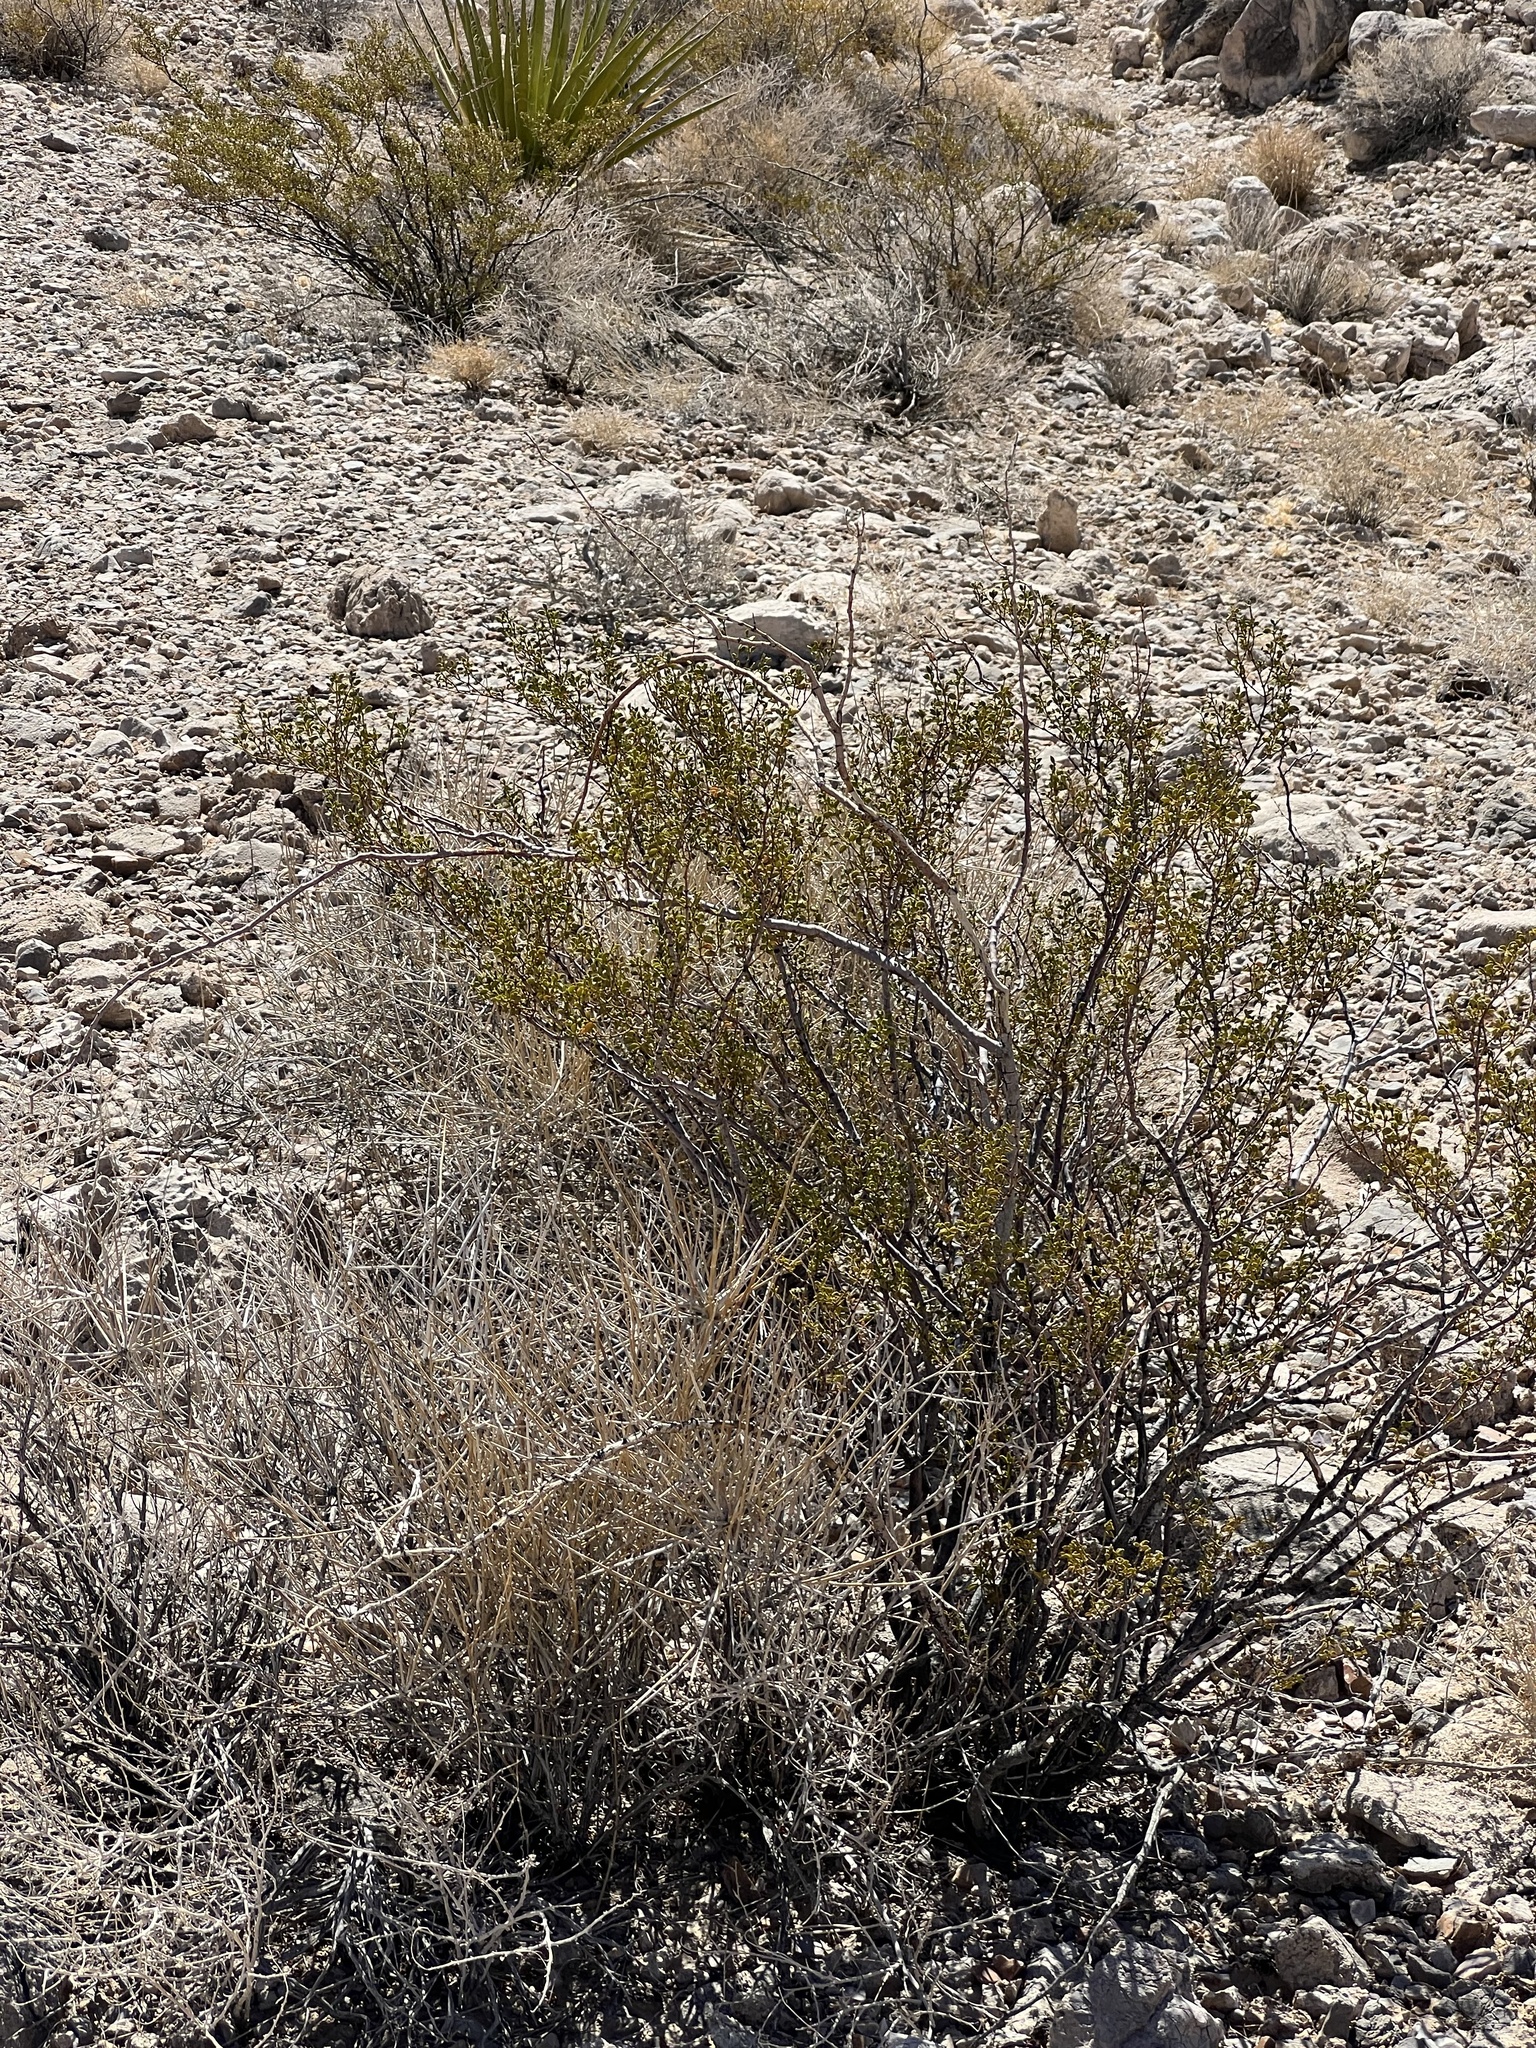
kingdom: Plantae
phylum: Tracheophyta
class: Magnoliopsida
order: Zygophyllales
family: Zygophyllaceae
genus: Larrea
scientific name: Larrea tridentata
